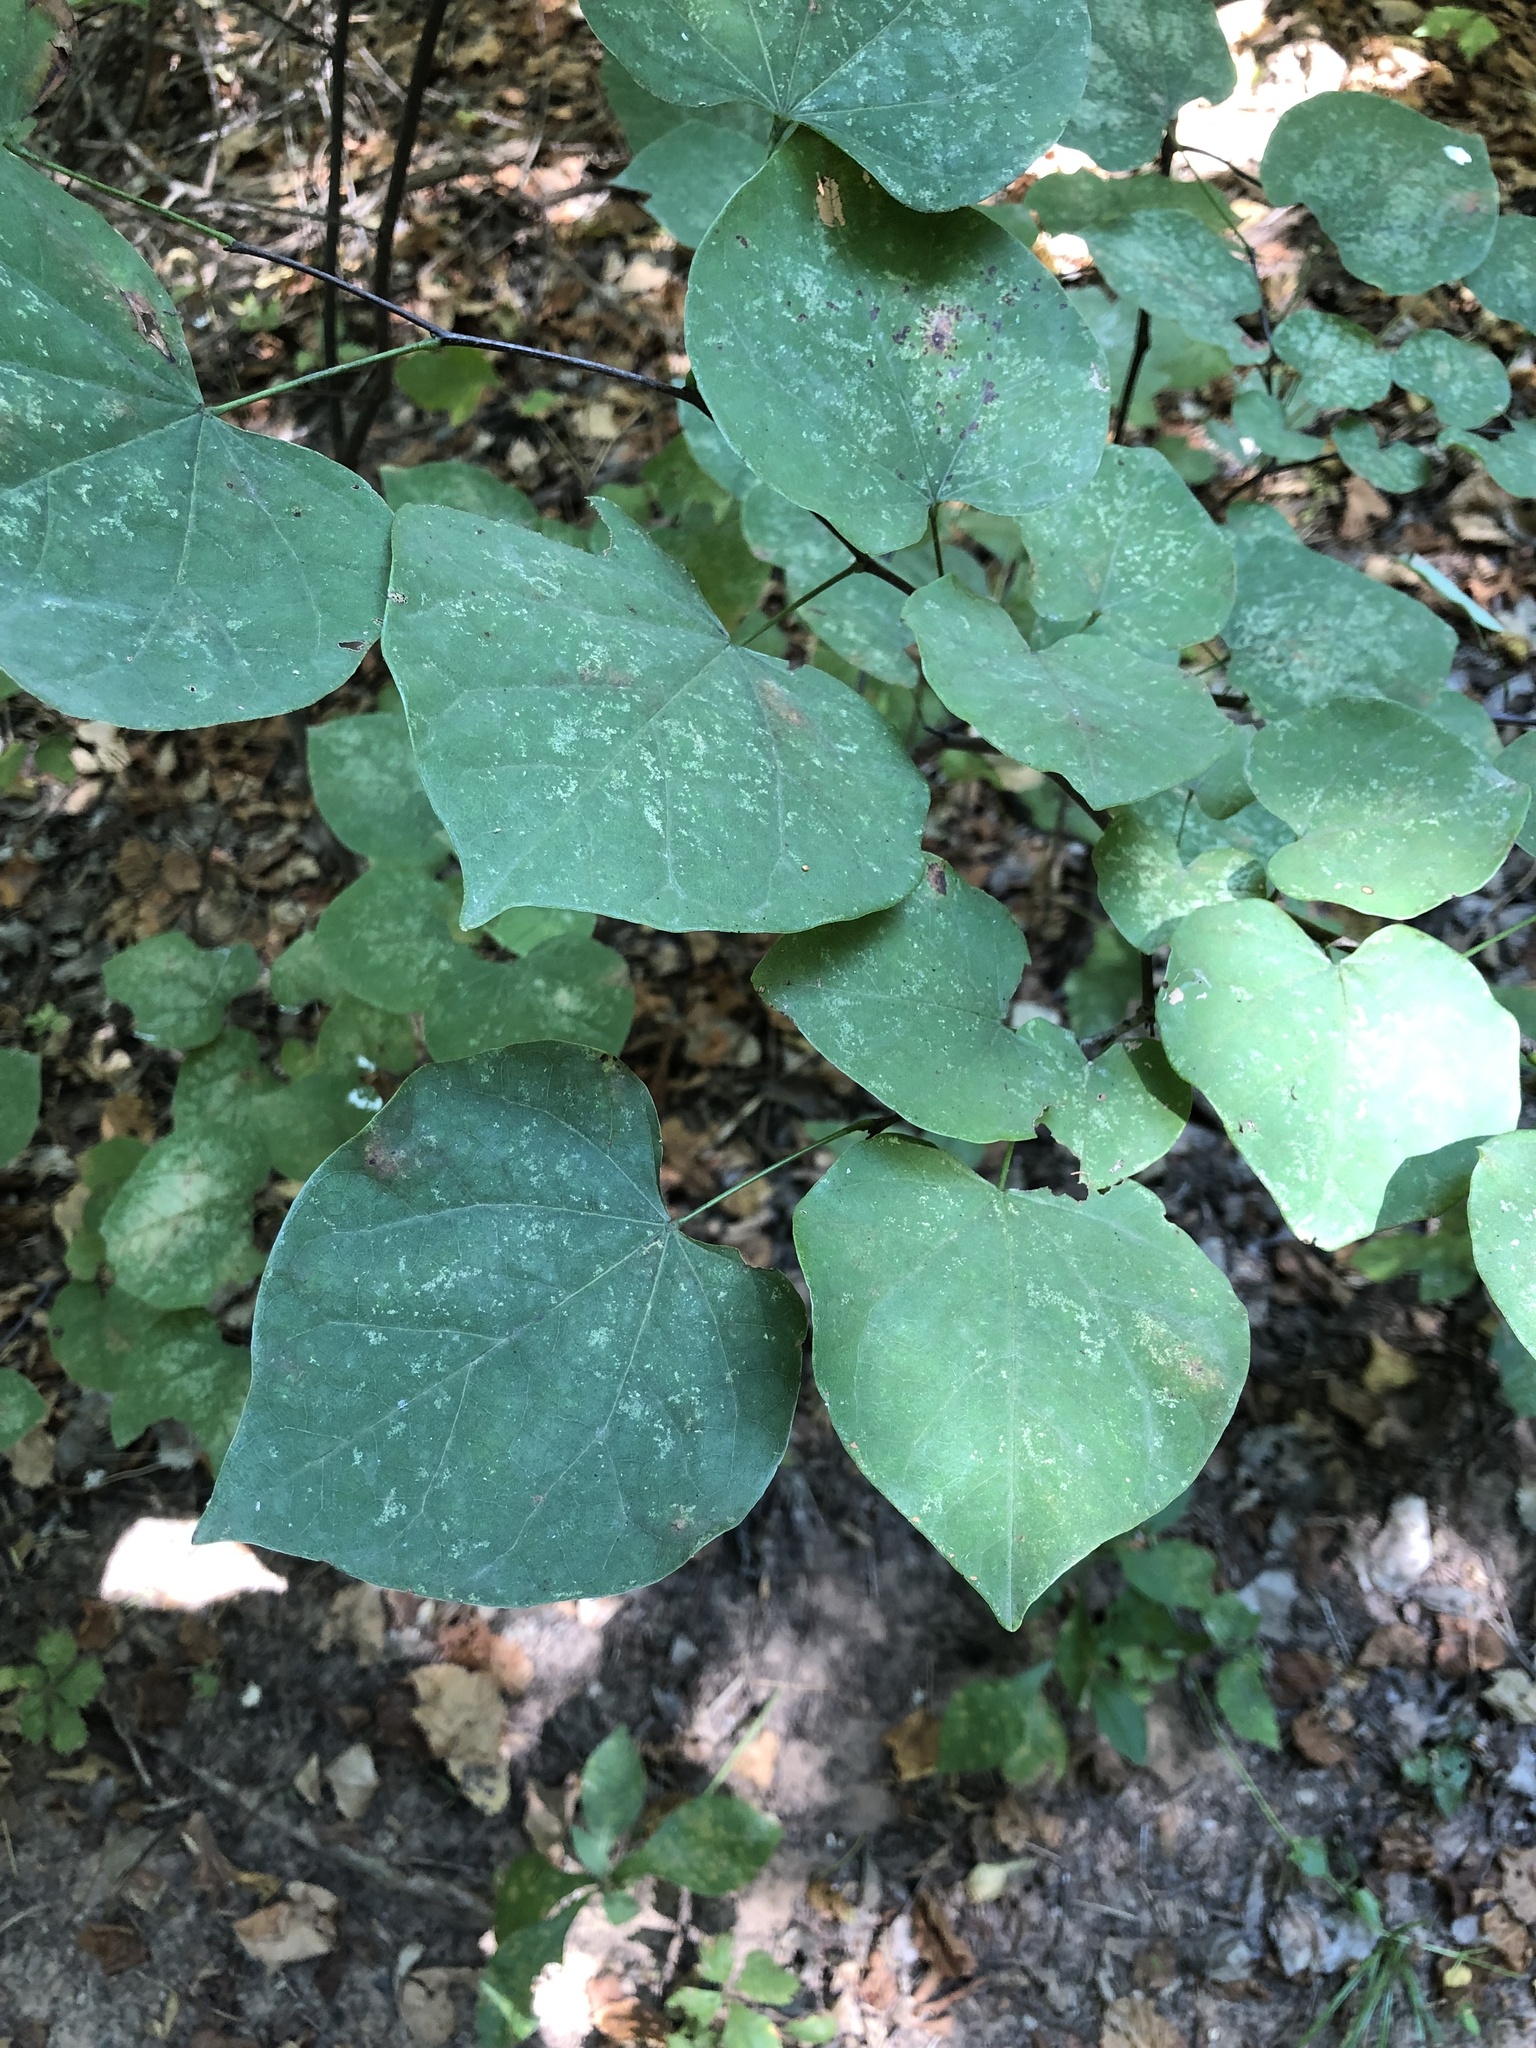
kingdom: Plantae
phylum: Tracheophyta
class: Magnoliopsida
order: Fabales
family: Fabaceae
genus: Cercis
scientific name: Cercis canadensis
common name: Eastern redbud
